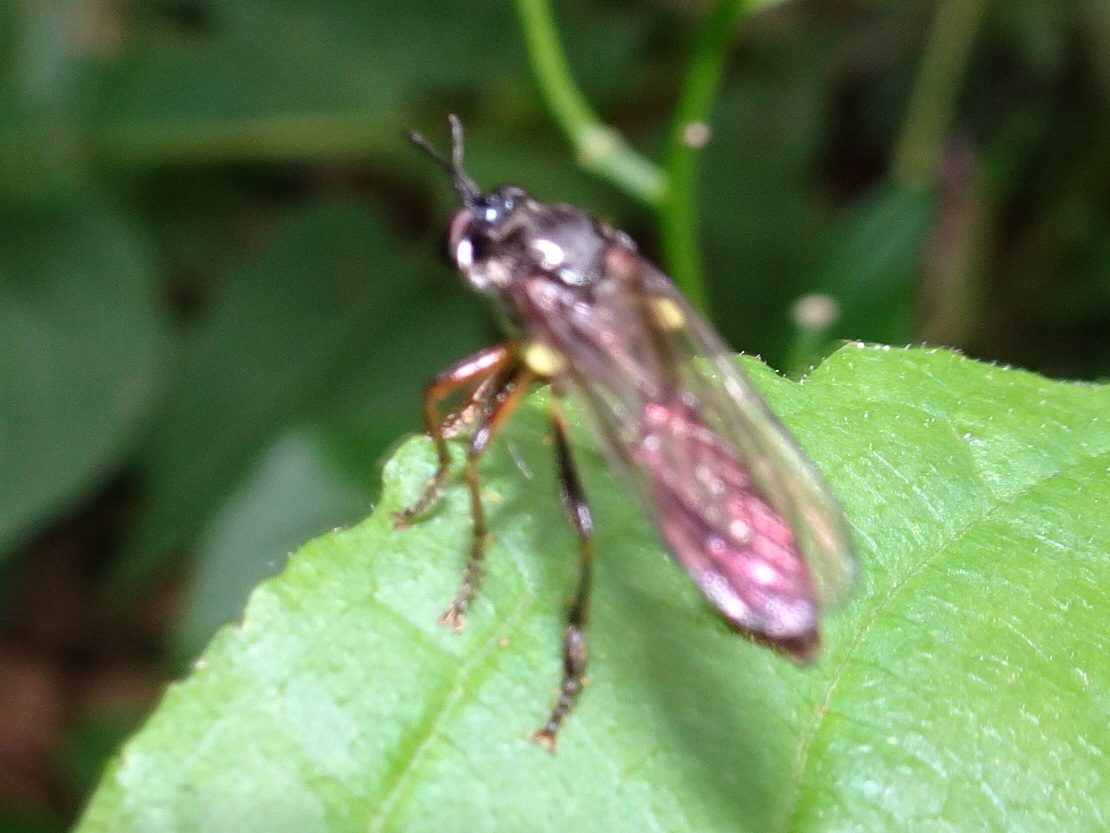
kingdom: Animalia
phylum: Arthropoda
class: Insecta
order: Diptera
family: Asilidae
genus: Dioctria
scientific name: Dioctria hyalipennis
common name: Stripe-legged robberfly
